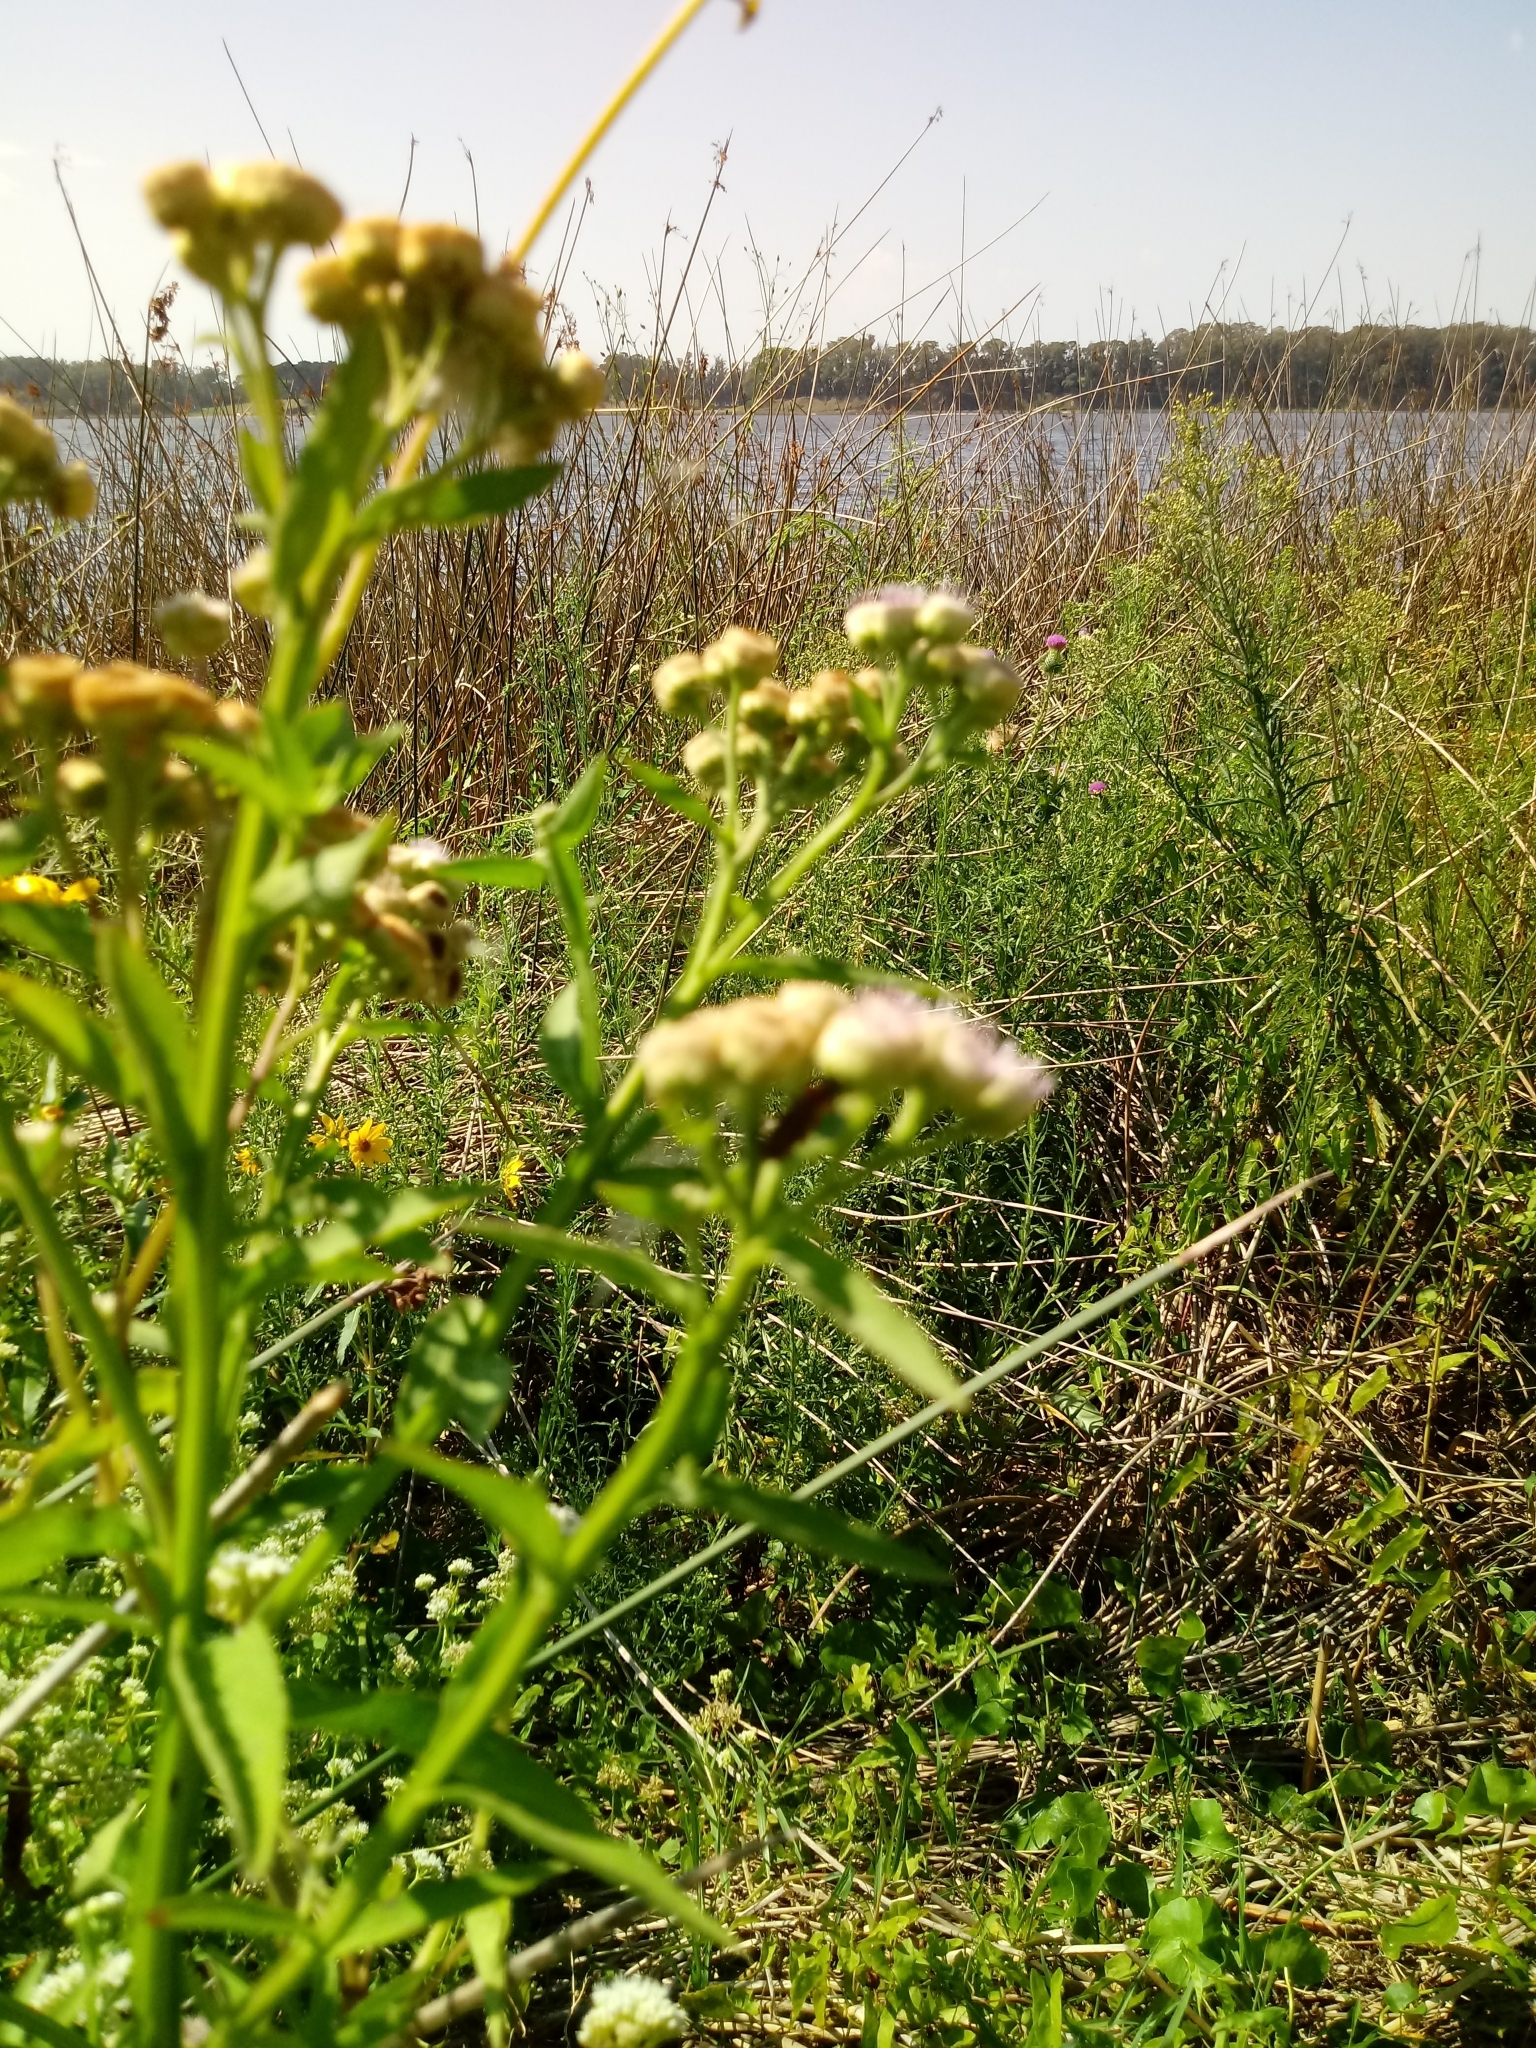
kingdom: Plantae
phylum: Tracheophyta
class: Magnoliopsida
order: Asterales
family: Asteraceae
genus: Pluchea
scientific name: Pluchea sagittalis
